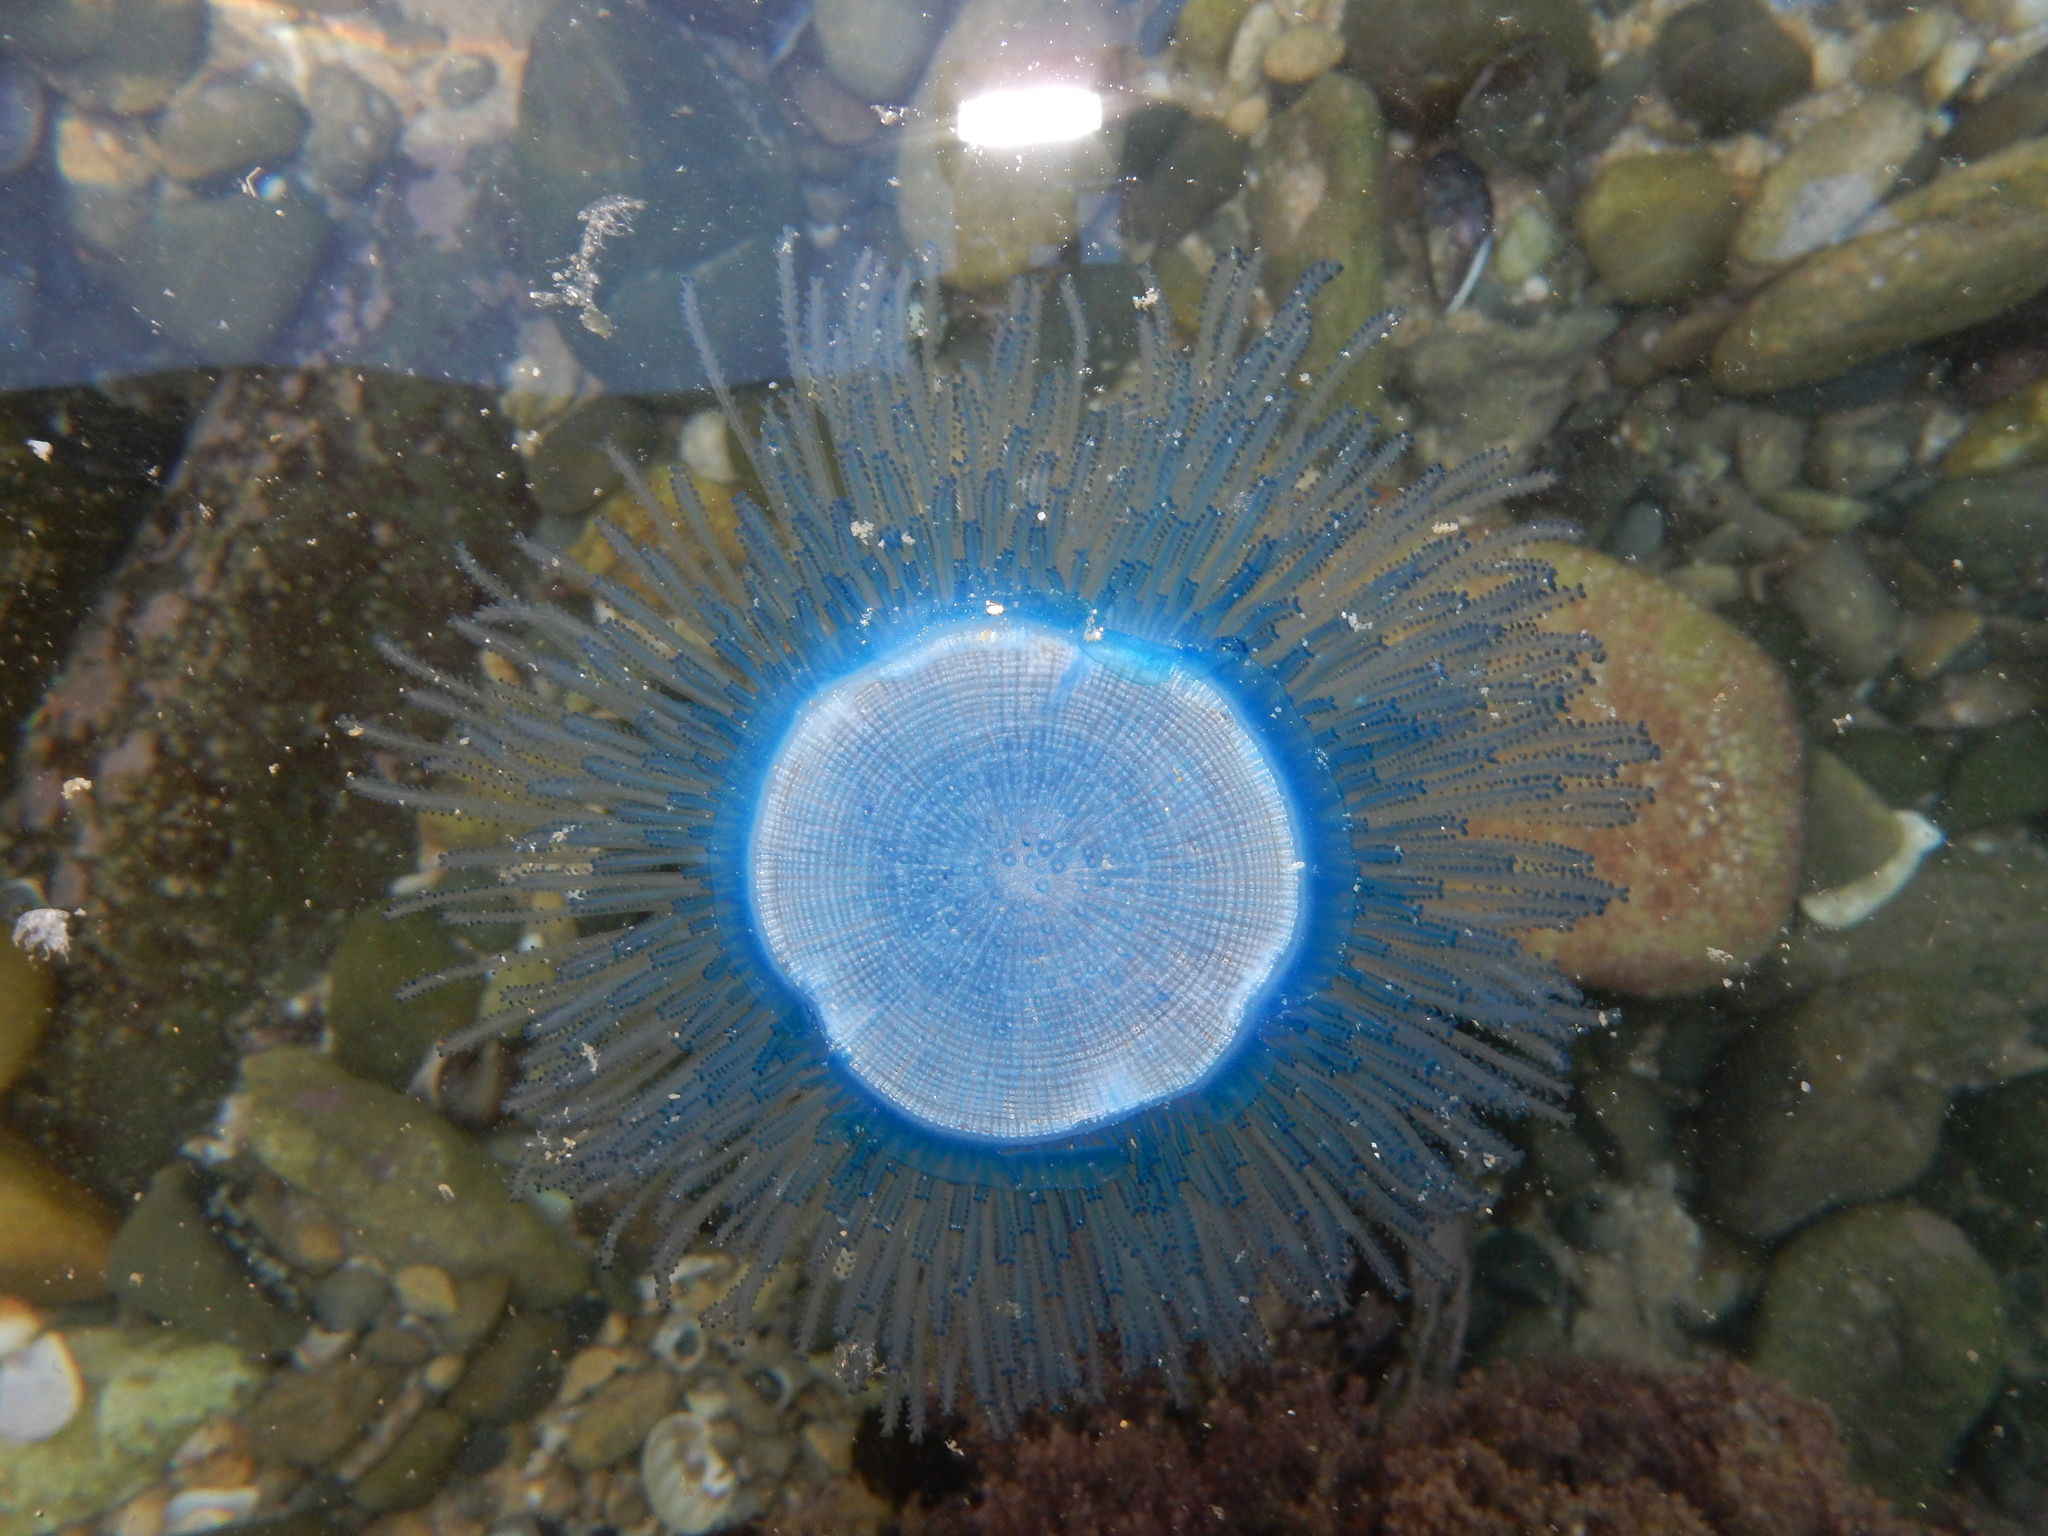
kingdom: Animalia
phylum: Cnidaria
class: Hydrozoa
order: Anthoathecata
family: Porpitidae
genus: Porpita
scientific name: Porpita porpita
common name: Blue button
